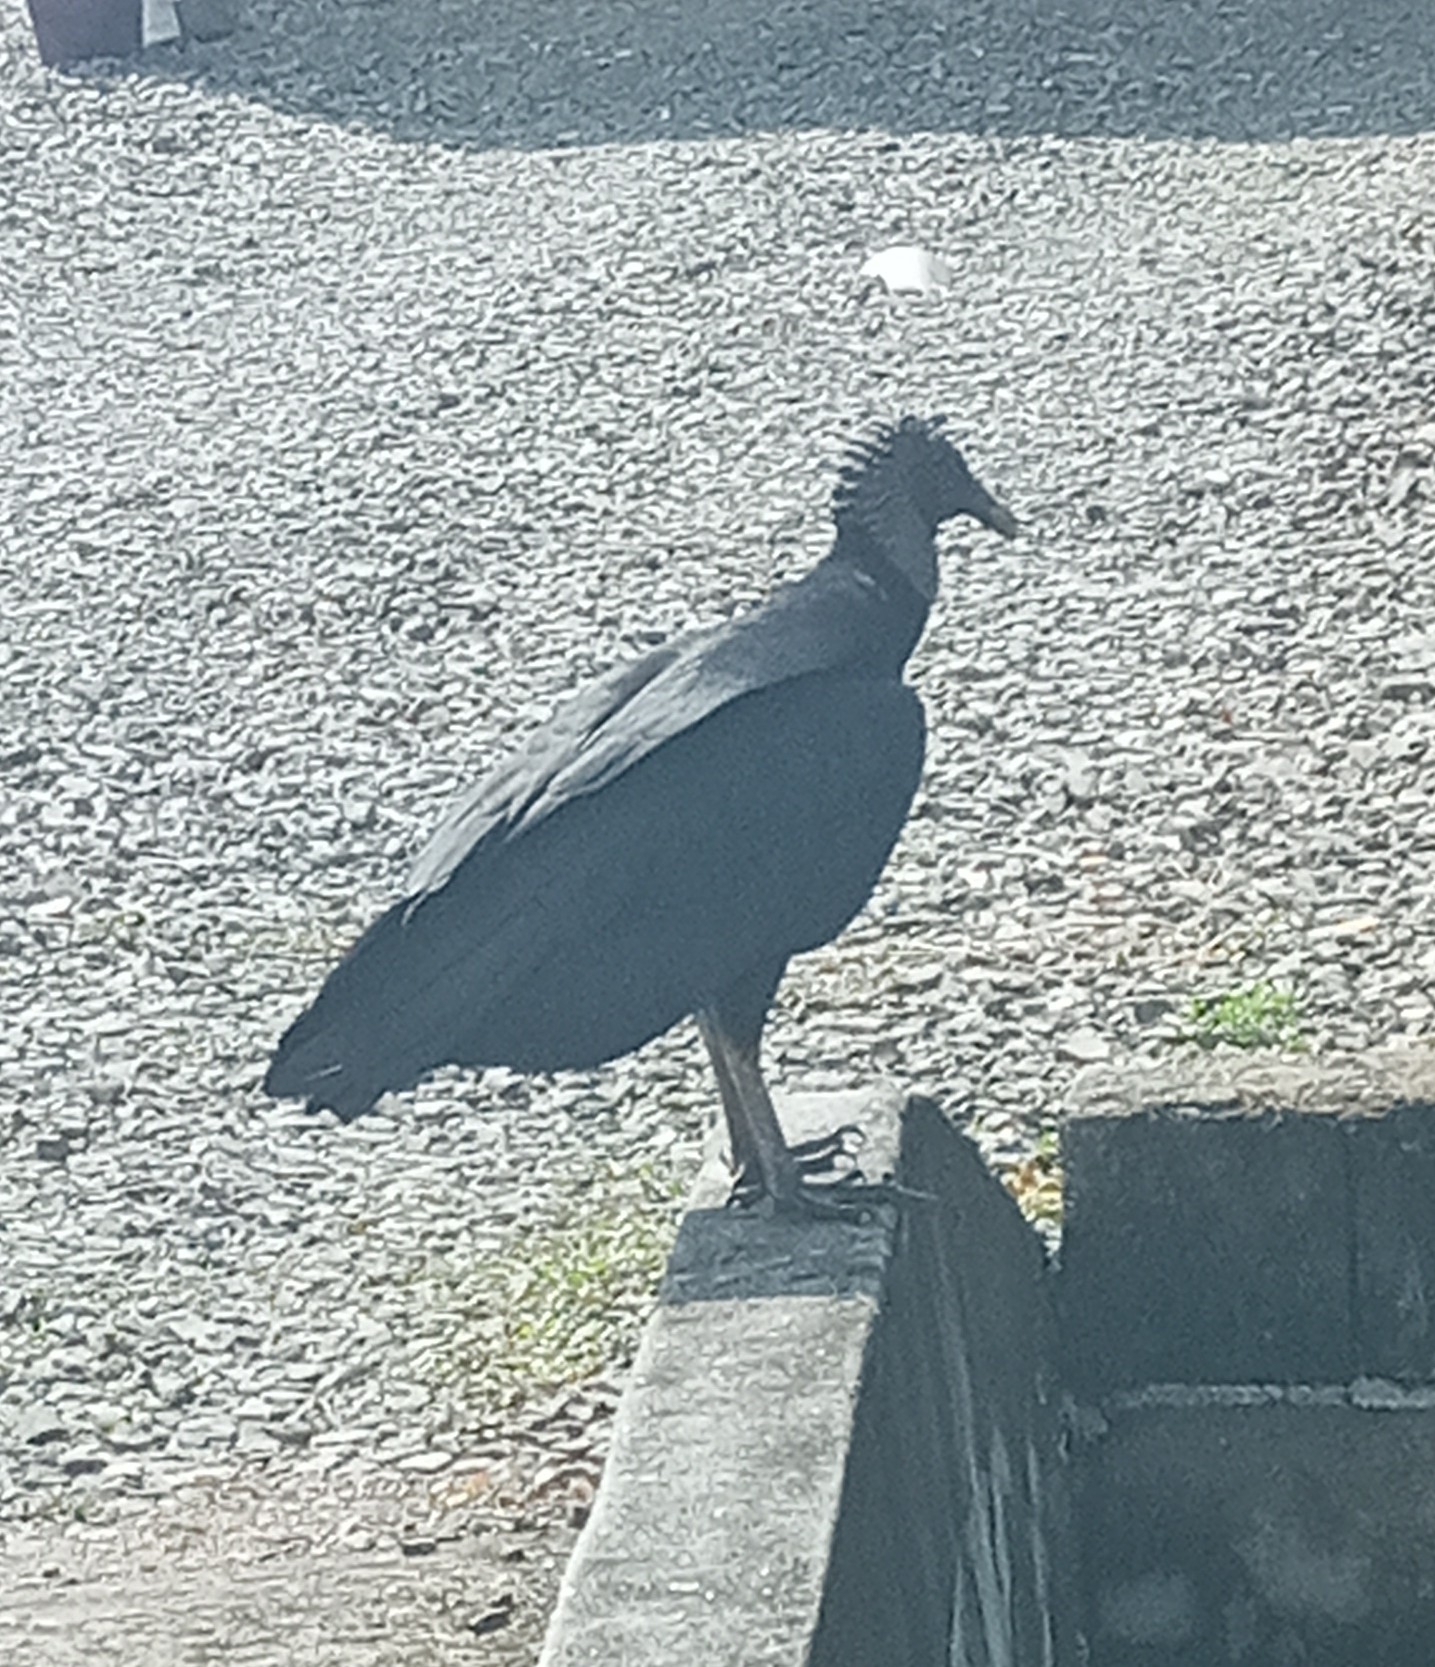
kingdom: Animalia
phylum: Chordata
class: Aves
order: Accipitriformes
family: Cathartidae
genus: Coragyps
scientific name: Coragyps atratus
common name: Black vulture
